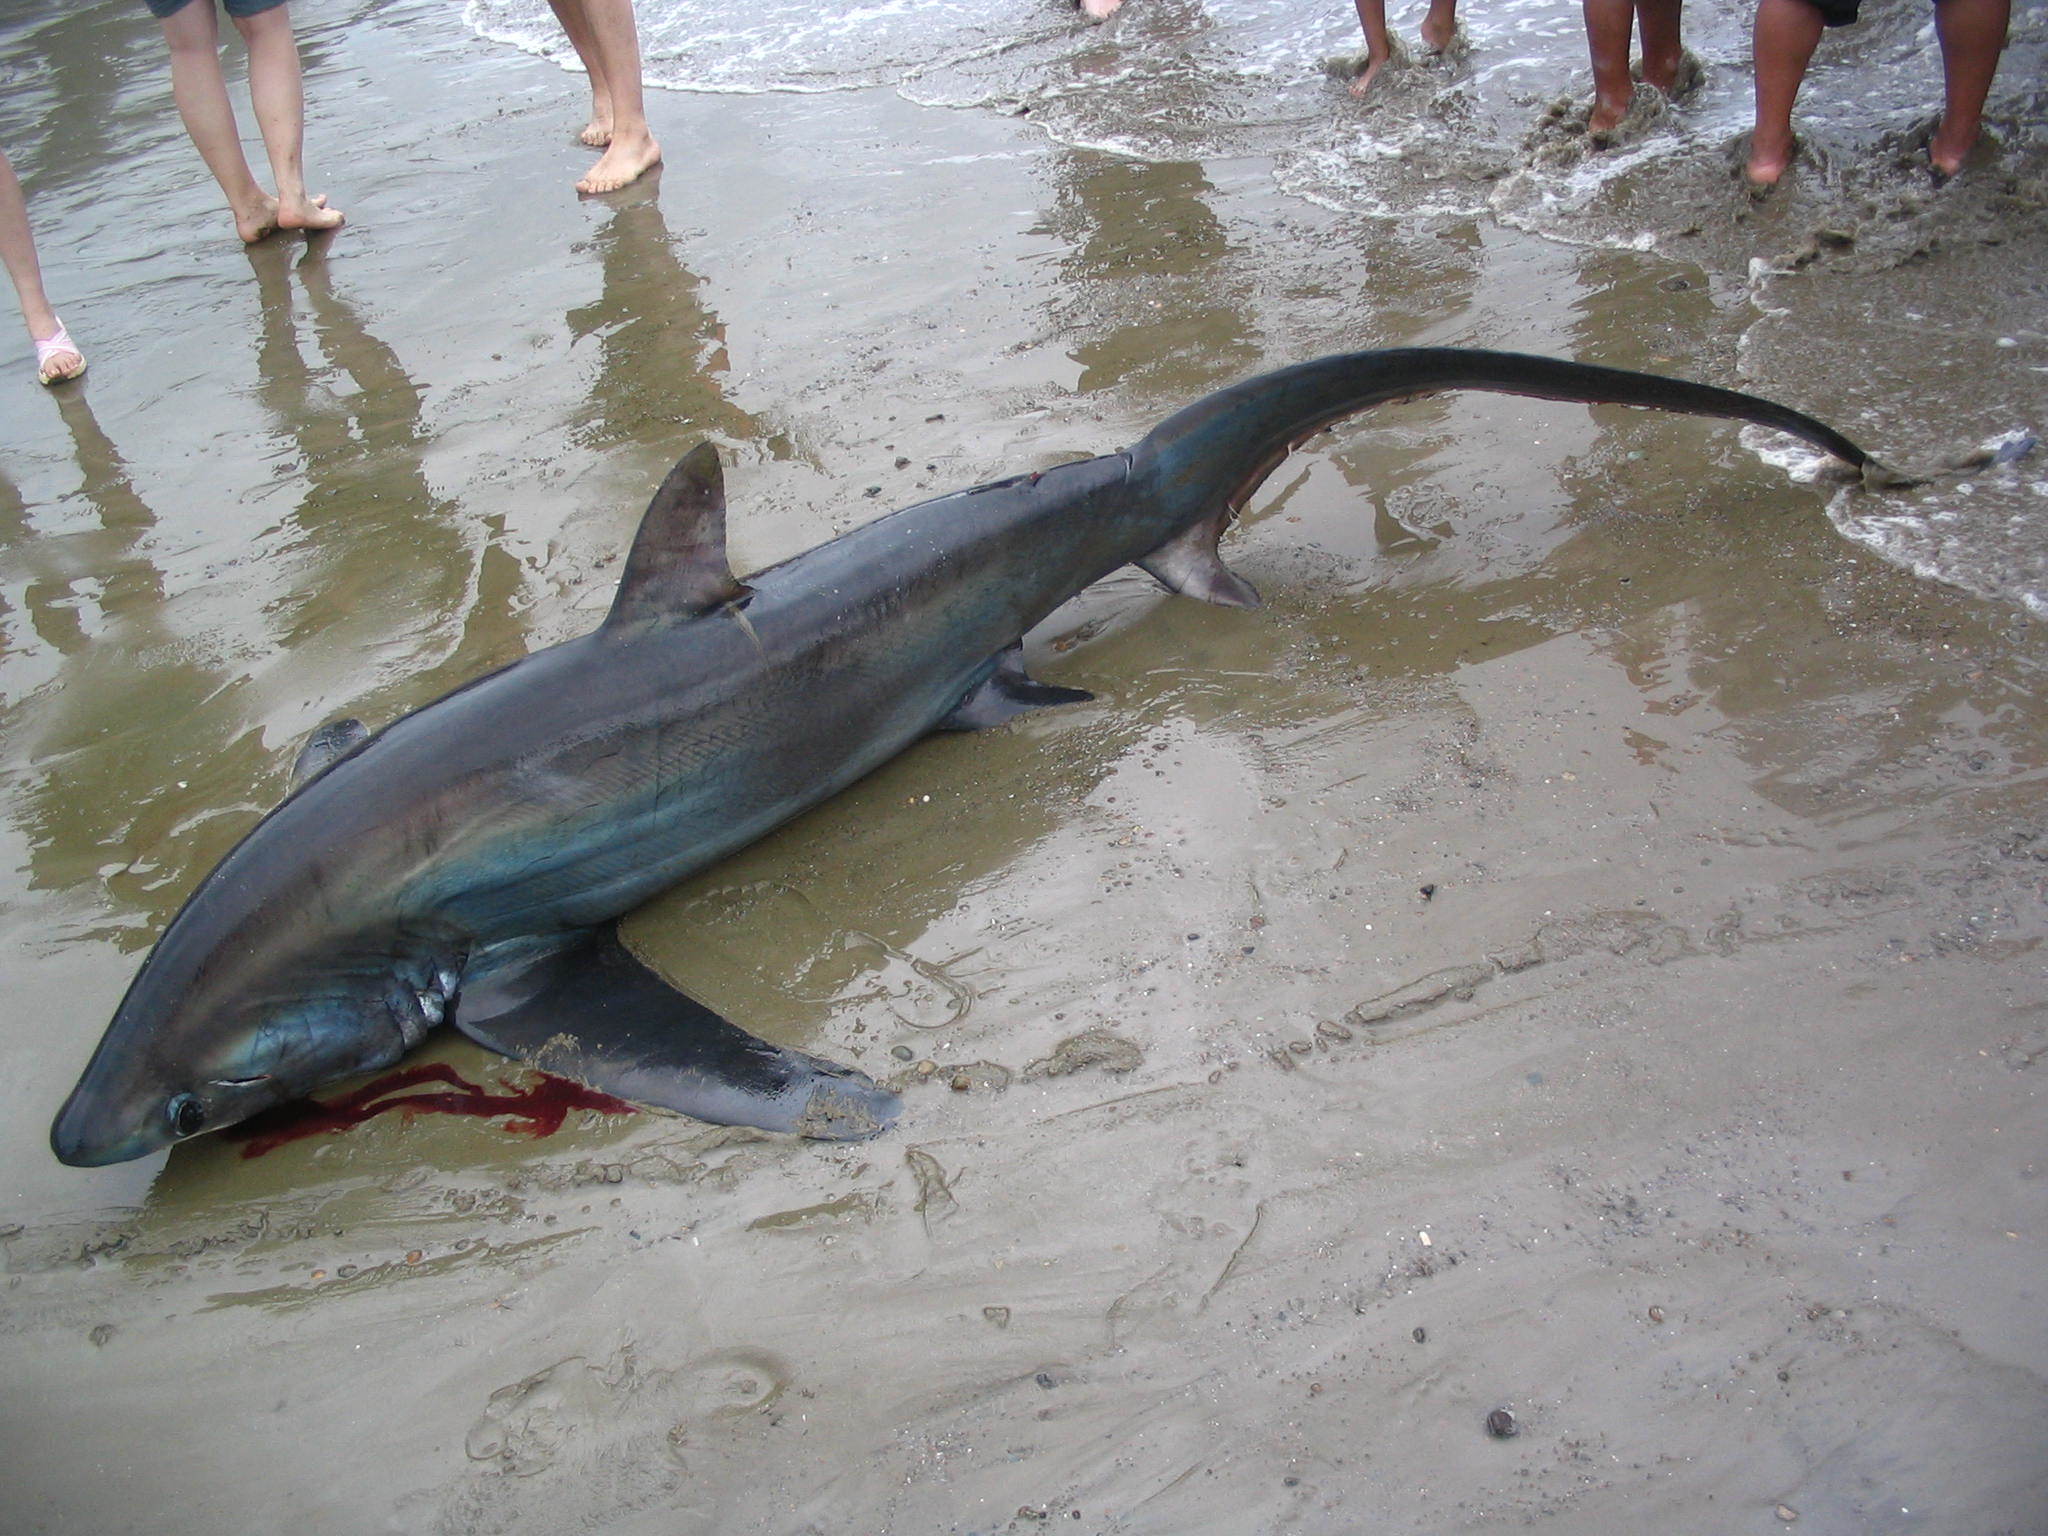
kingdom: Animalia
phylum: Chordata
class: Elasmobranchii
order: Lamniformes
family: Alopiidae
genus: Alopias
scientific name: Alopias pelagicus
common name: Pelagic thresher
